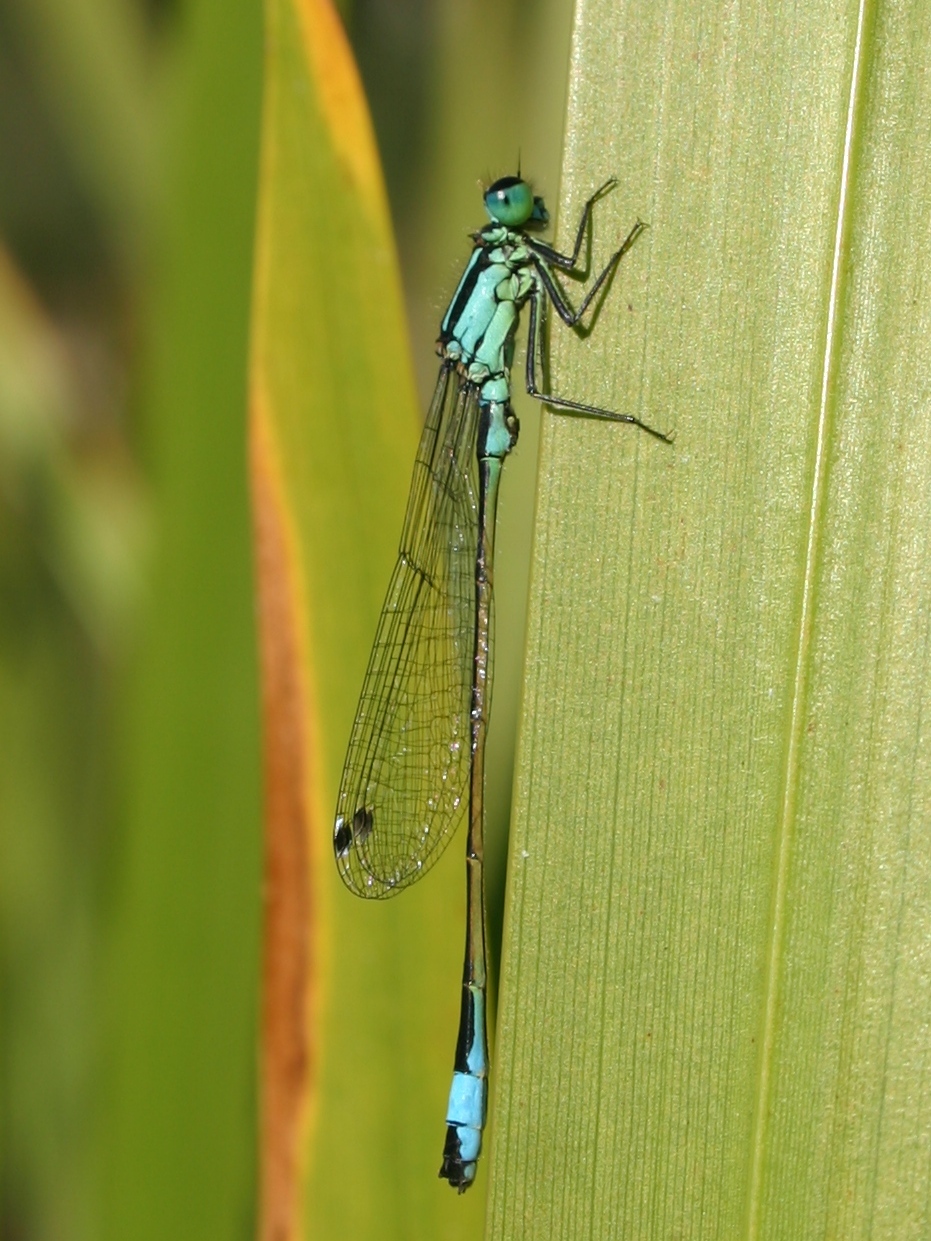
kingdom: Animalia
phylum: Arthropoda
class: Insecta
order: Odonata
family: Coenagrionidae
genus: Ischnura
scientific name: Ischnura elegans
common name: Blue-tailed damselfly
